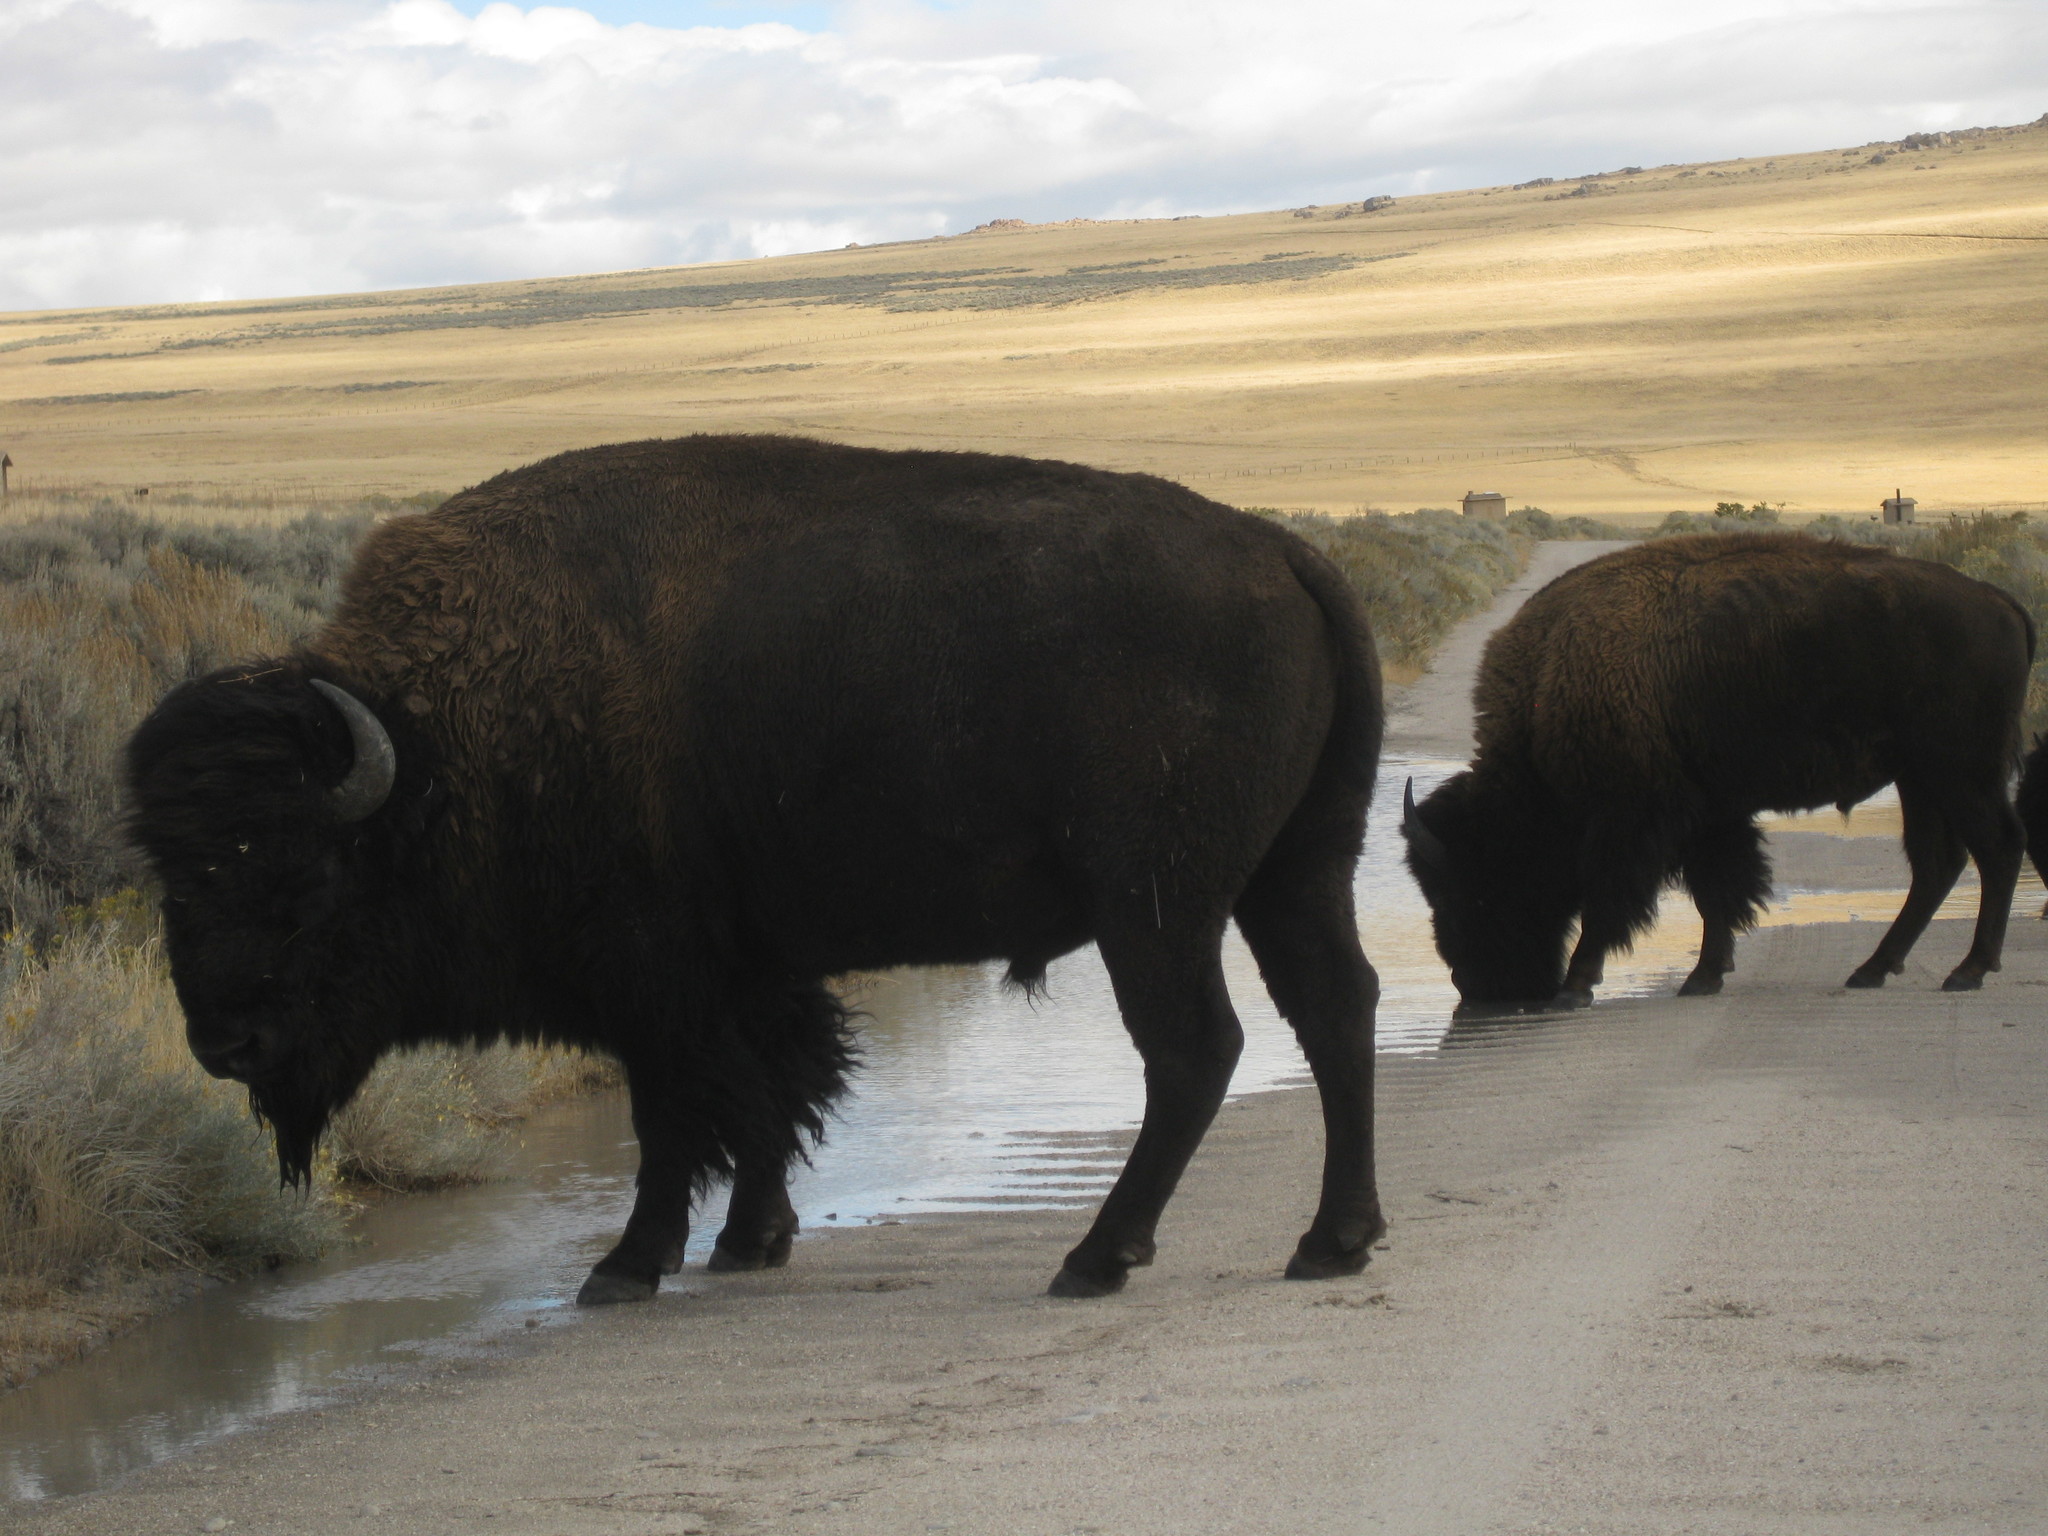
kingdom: Animalia
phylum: Chordata
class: Mammalia
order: Artiodactyla
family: Bovidae
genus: Bison
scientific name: Bison bison
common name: American bison
